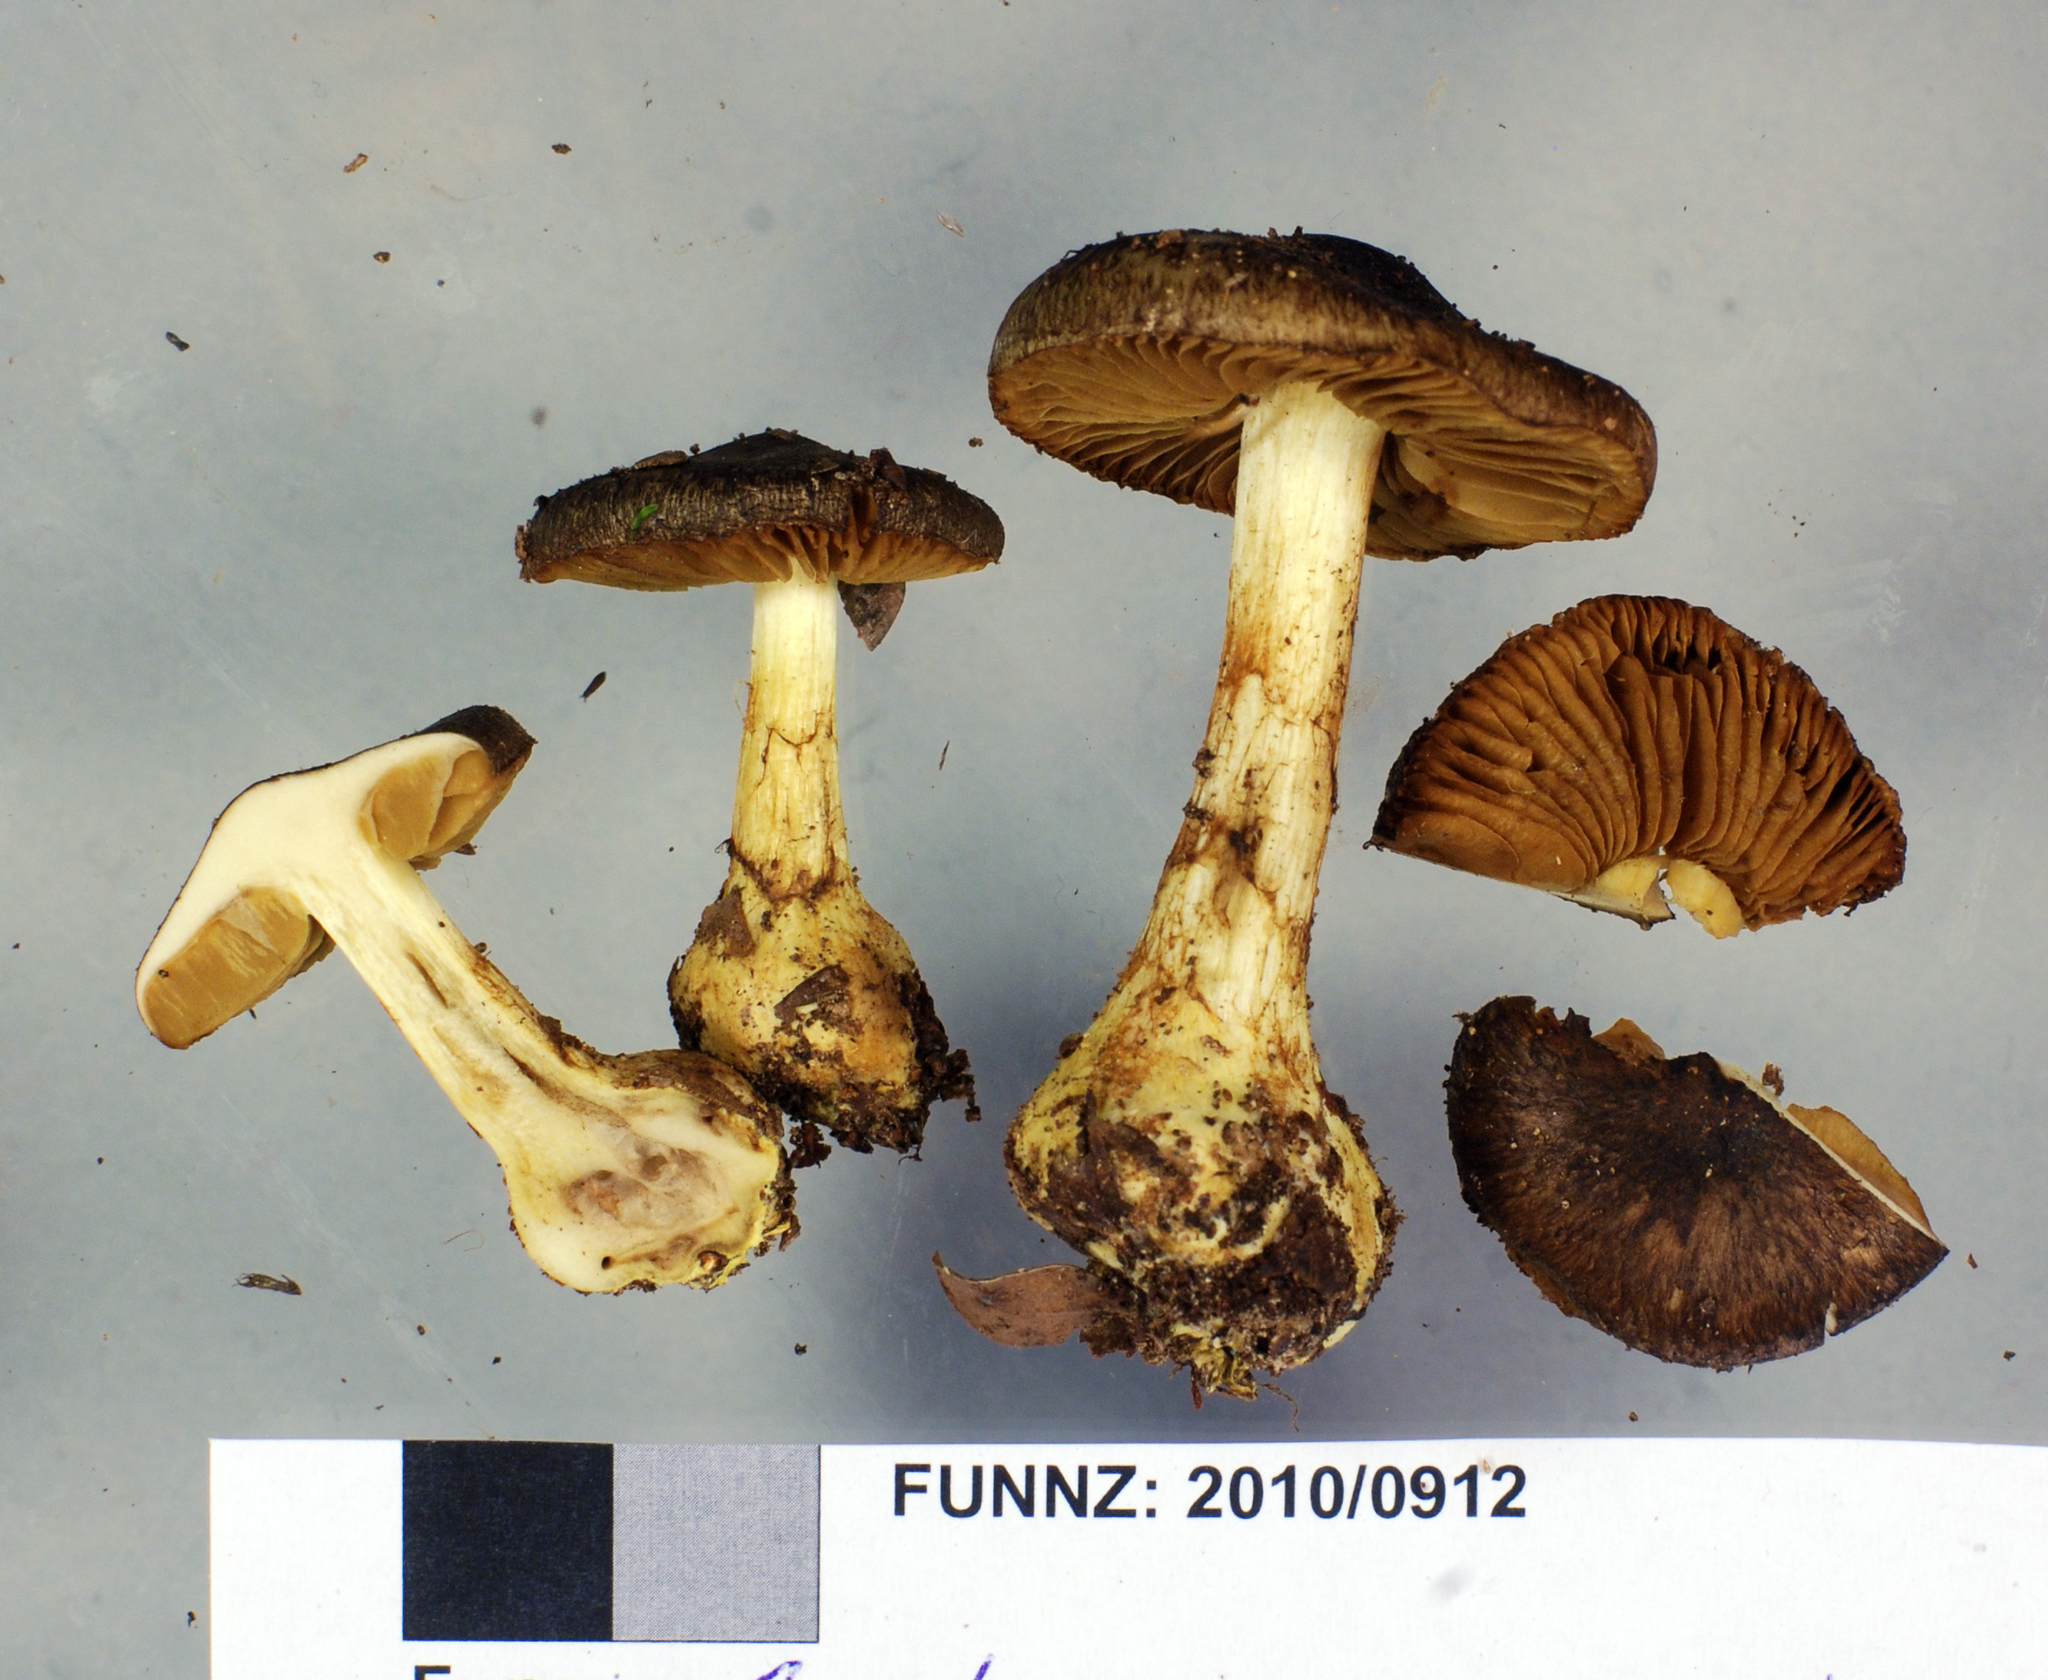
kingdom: Fungi
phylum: Basidiomycota
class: Agaricomycetes
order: Agaricales
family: Cortinariaceae
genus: Cortinarius
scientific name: Cortinarius ophryx
